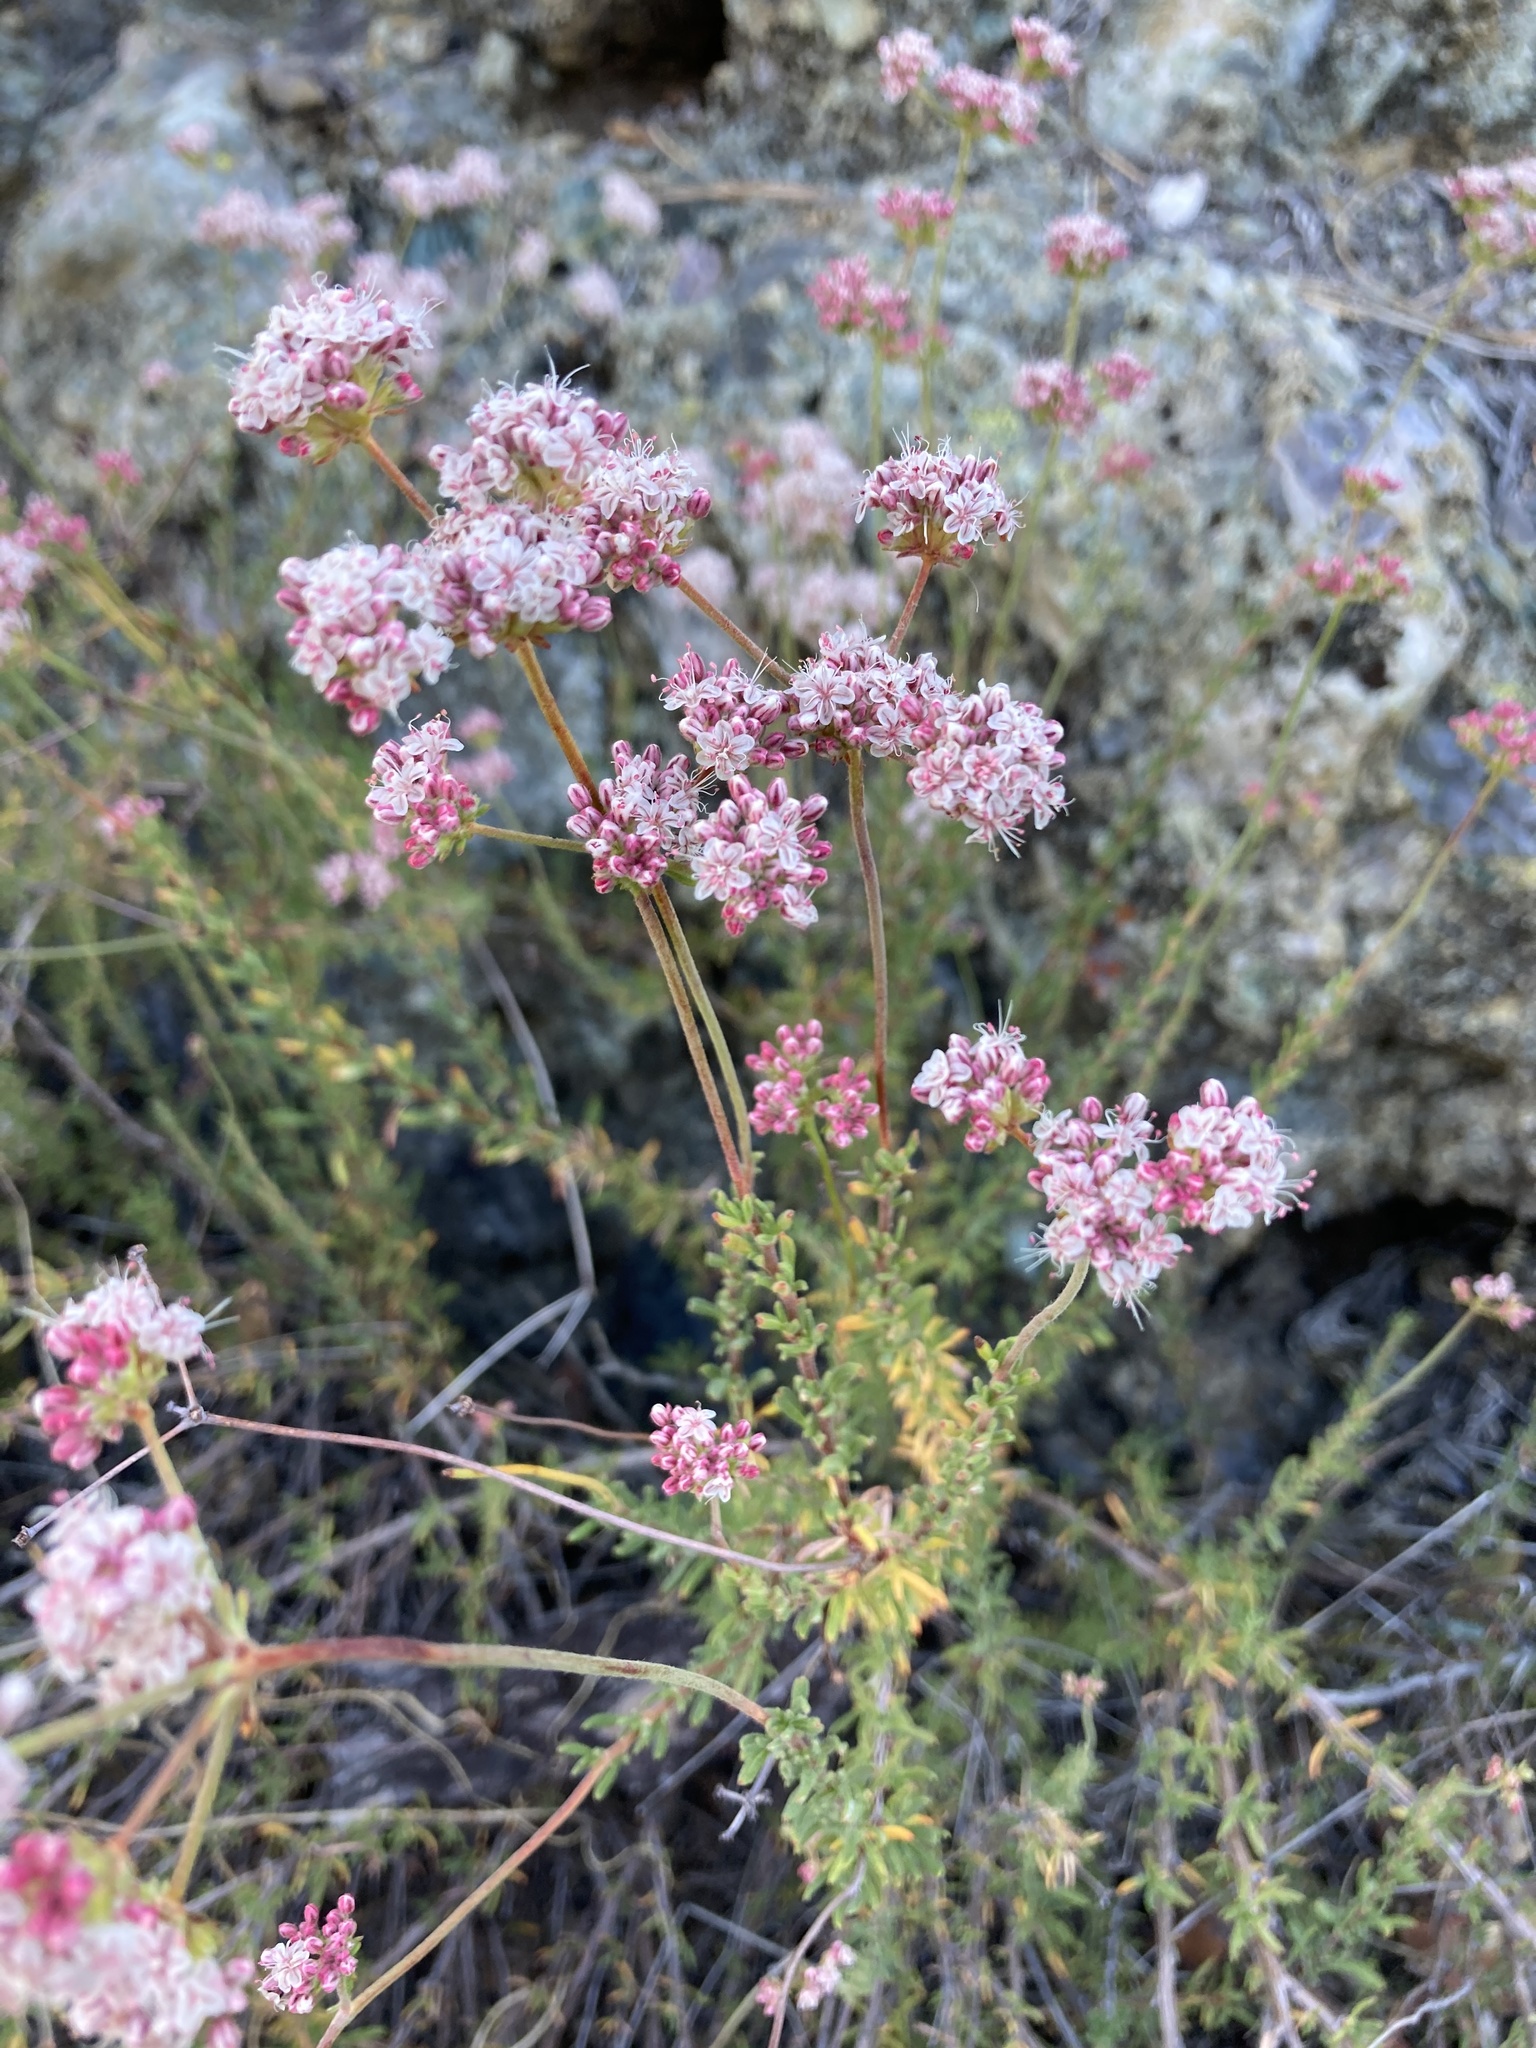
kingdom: Plantae
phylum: Tracheophyta
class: Magnoliopsida
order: Caryophyllales
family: Polygonaceae
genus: Eriogonum
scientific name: Eriogonum fasciculatum
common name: California wild buckwheat
